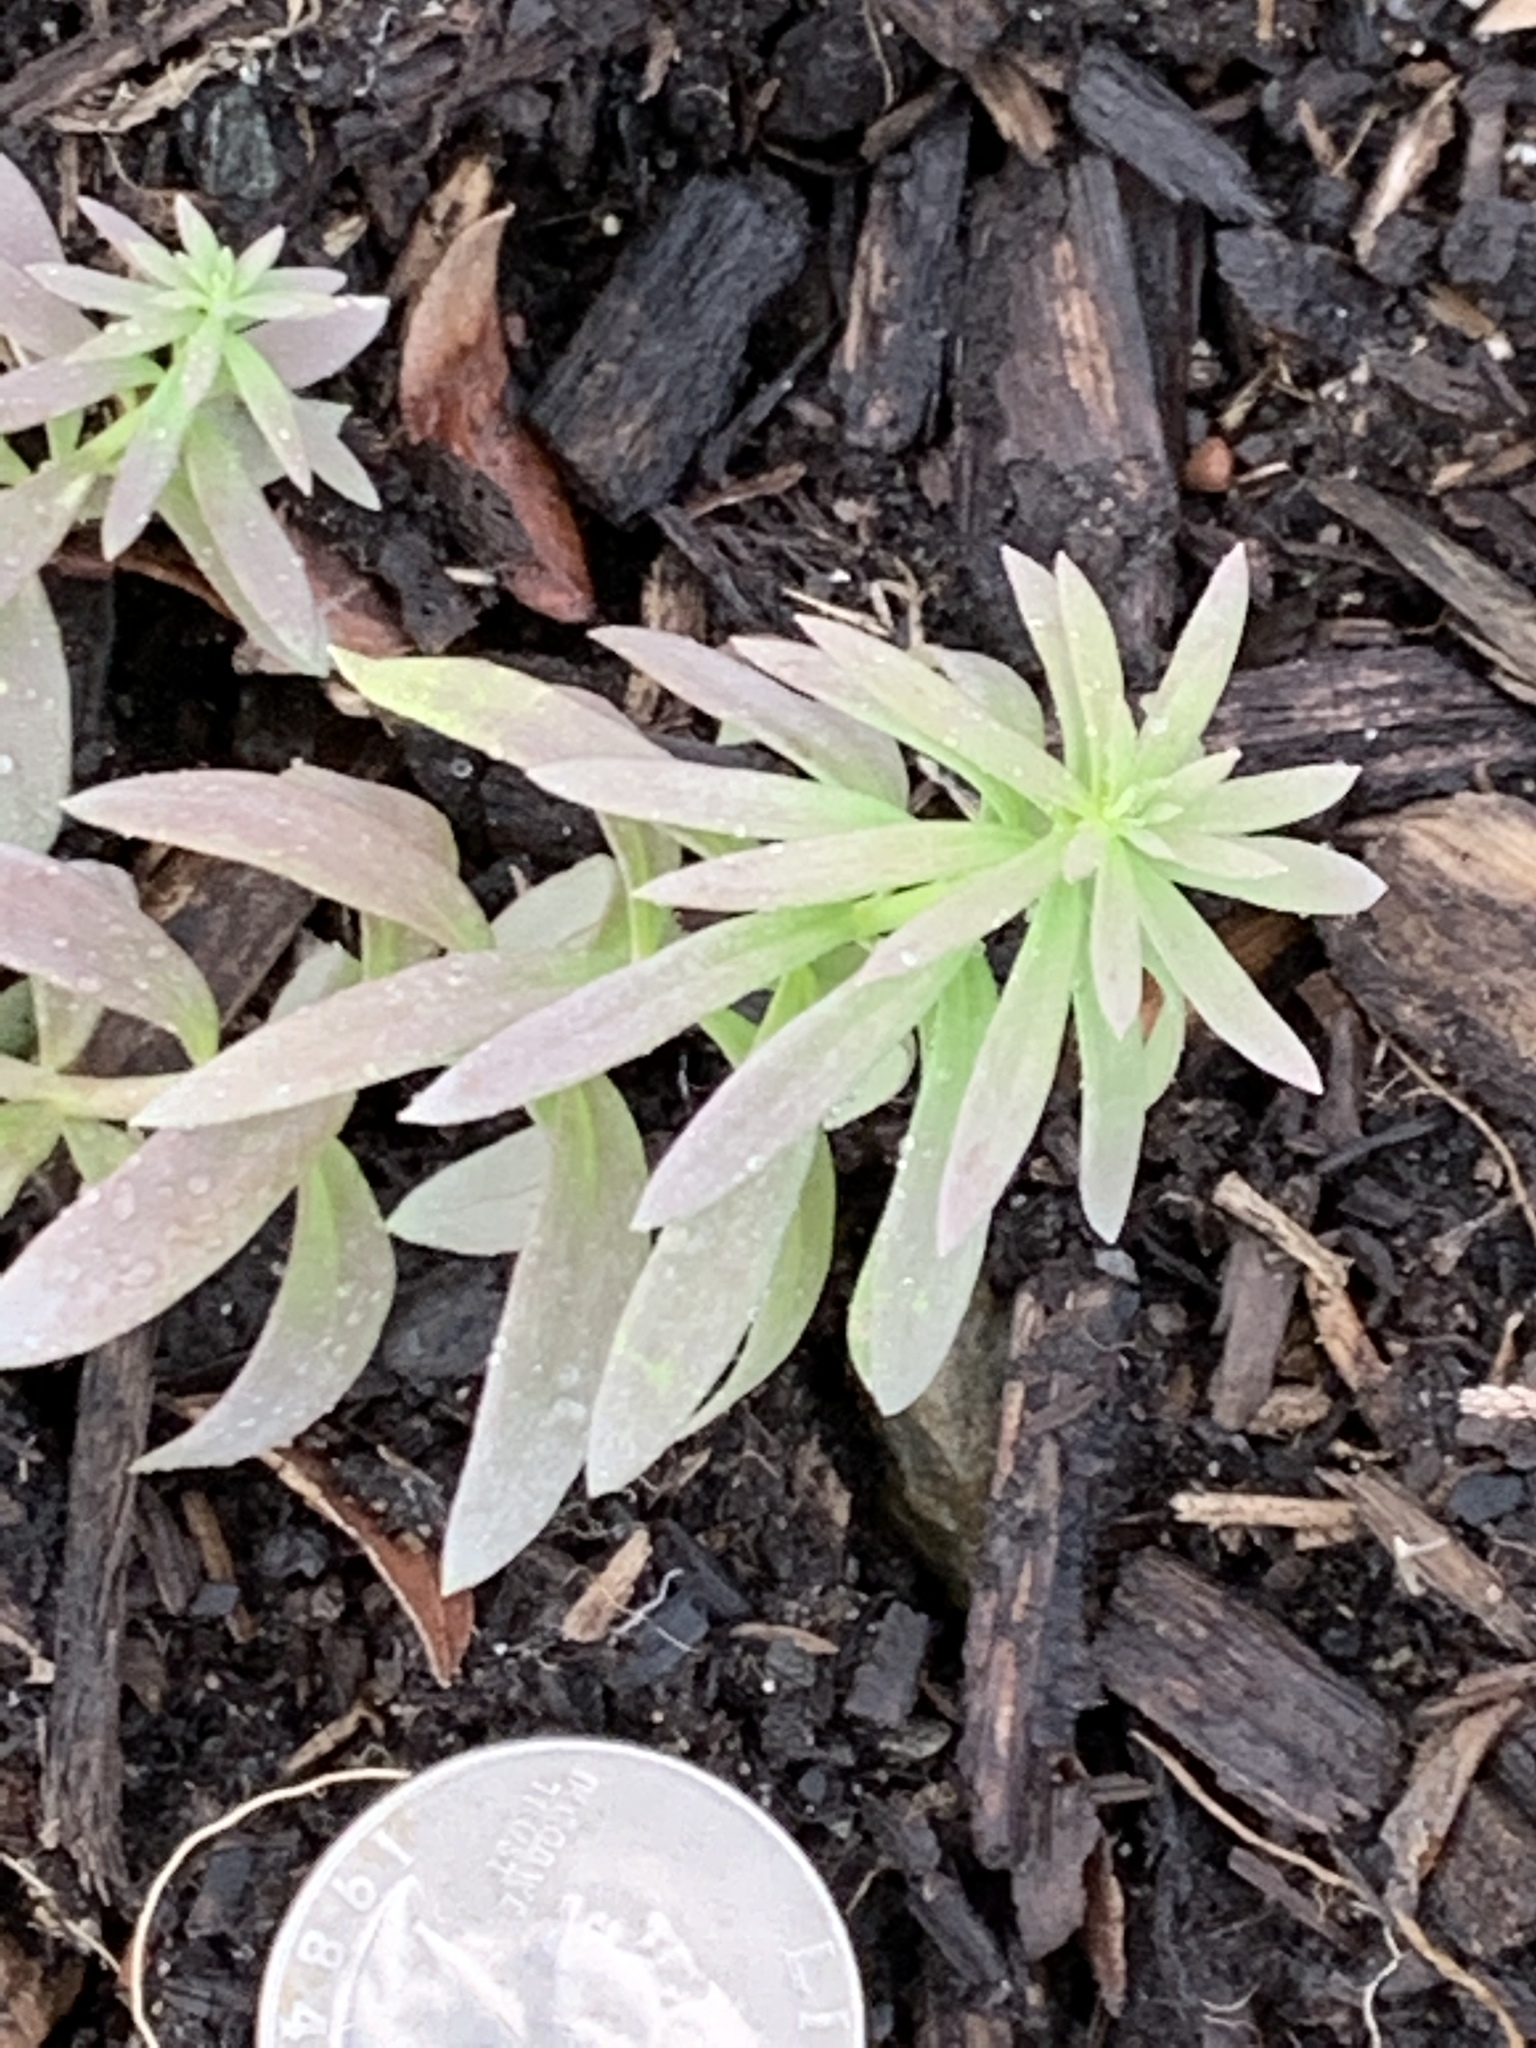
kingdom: Plantae
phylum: Tracheophyta
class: Magnoliopsida
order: Lamiales
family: Plantaginaceae
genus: Linaria
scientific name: Linaria vulgaris
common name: Butter and eggs
